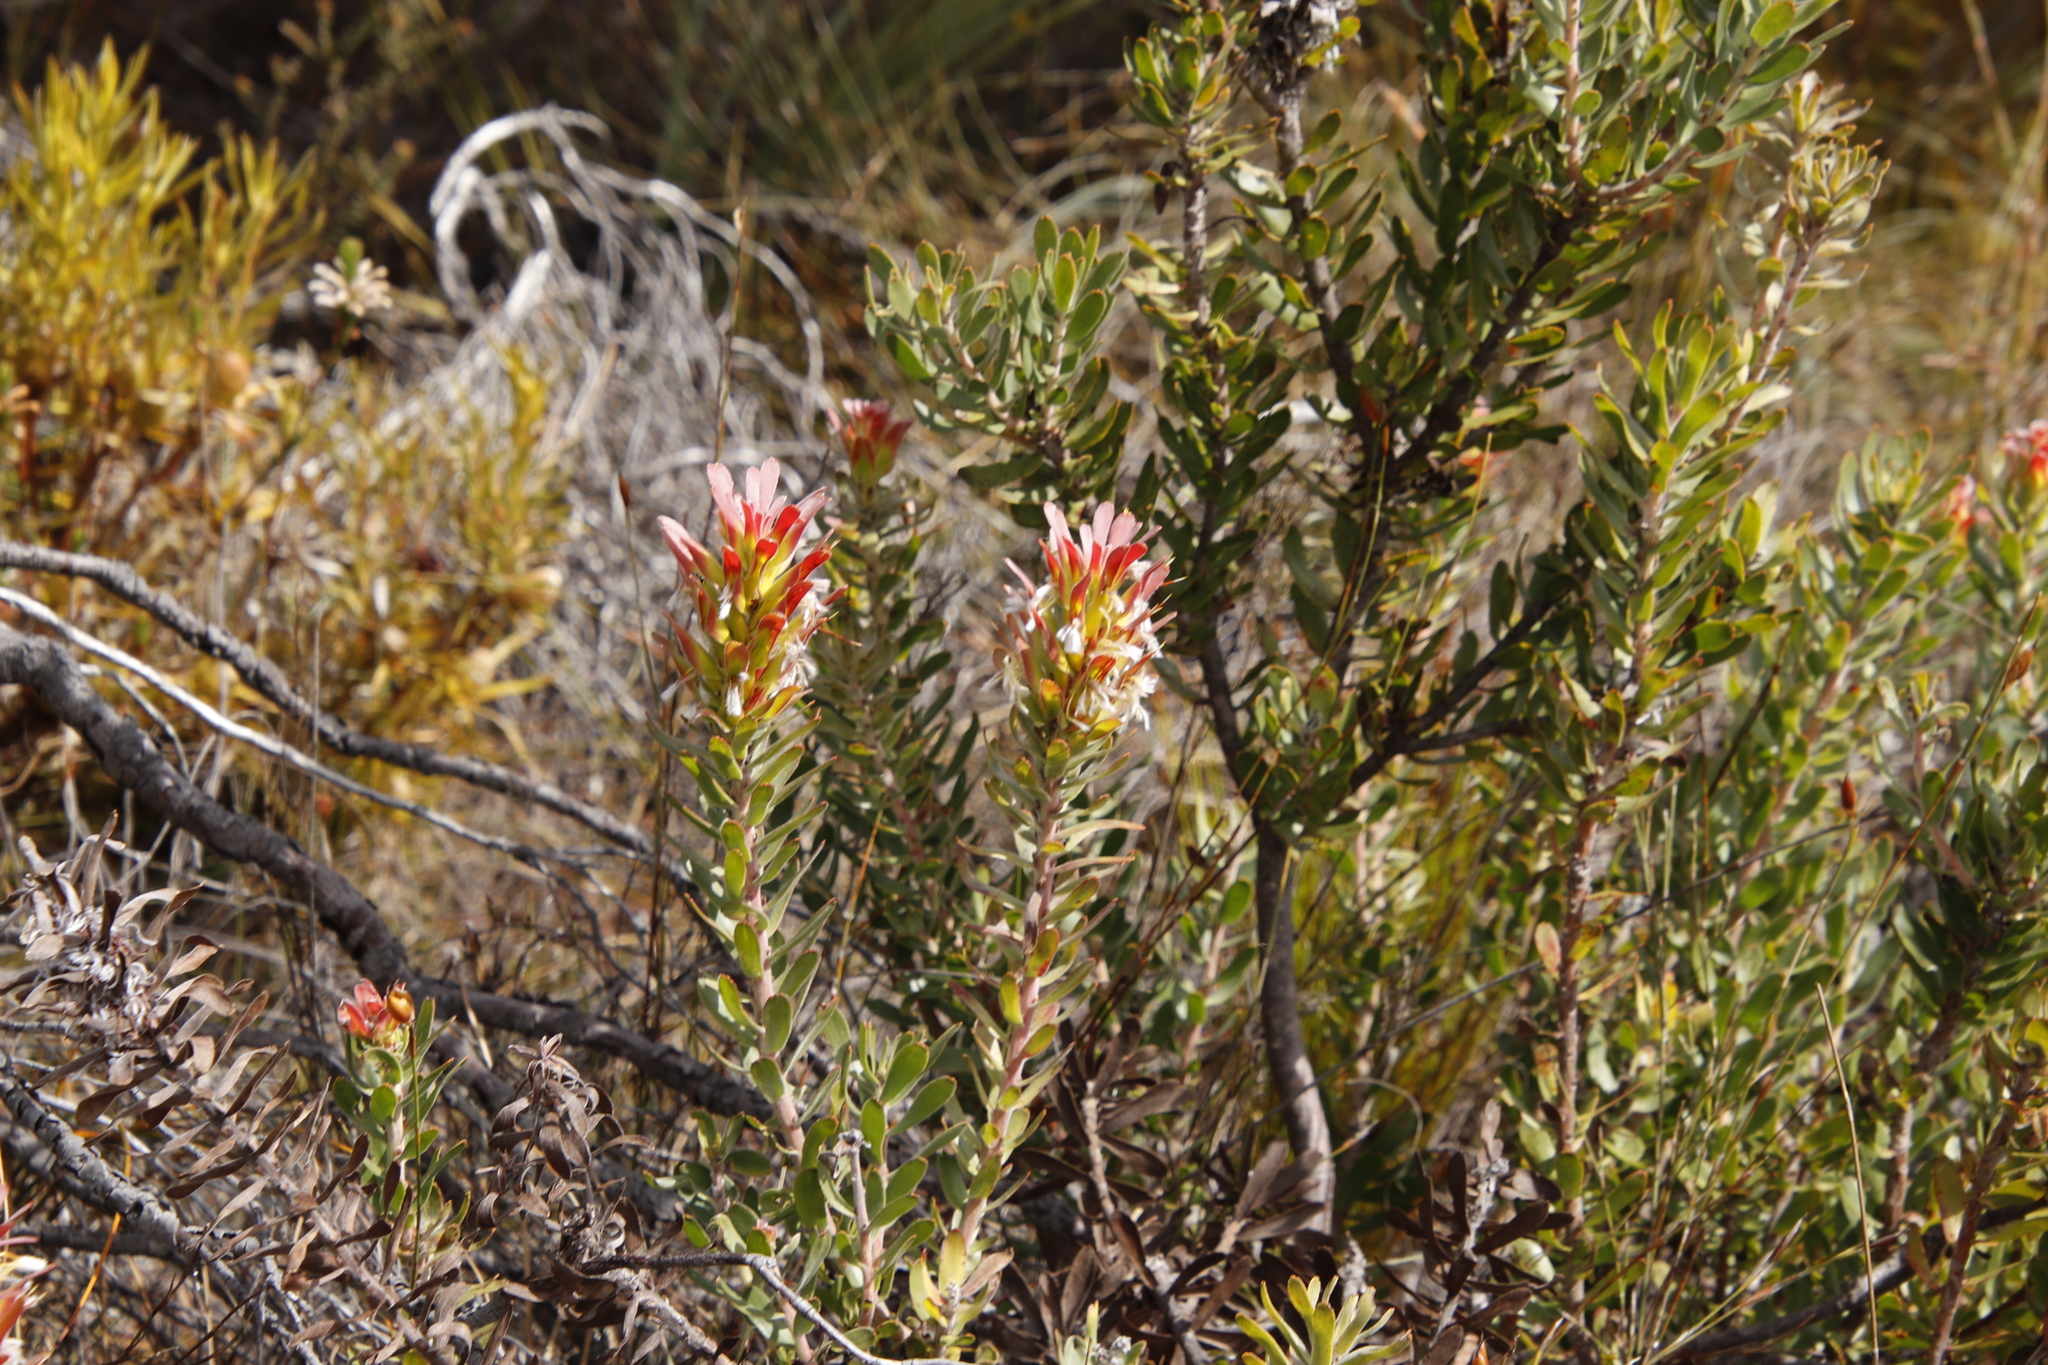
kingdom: Plantae
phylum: Tracheophyta
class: Magnoliopsida
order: Proteales
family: Proteaceae
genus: Mimetes
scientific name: Mimetes cucullatus
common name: Common pagoda
